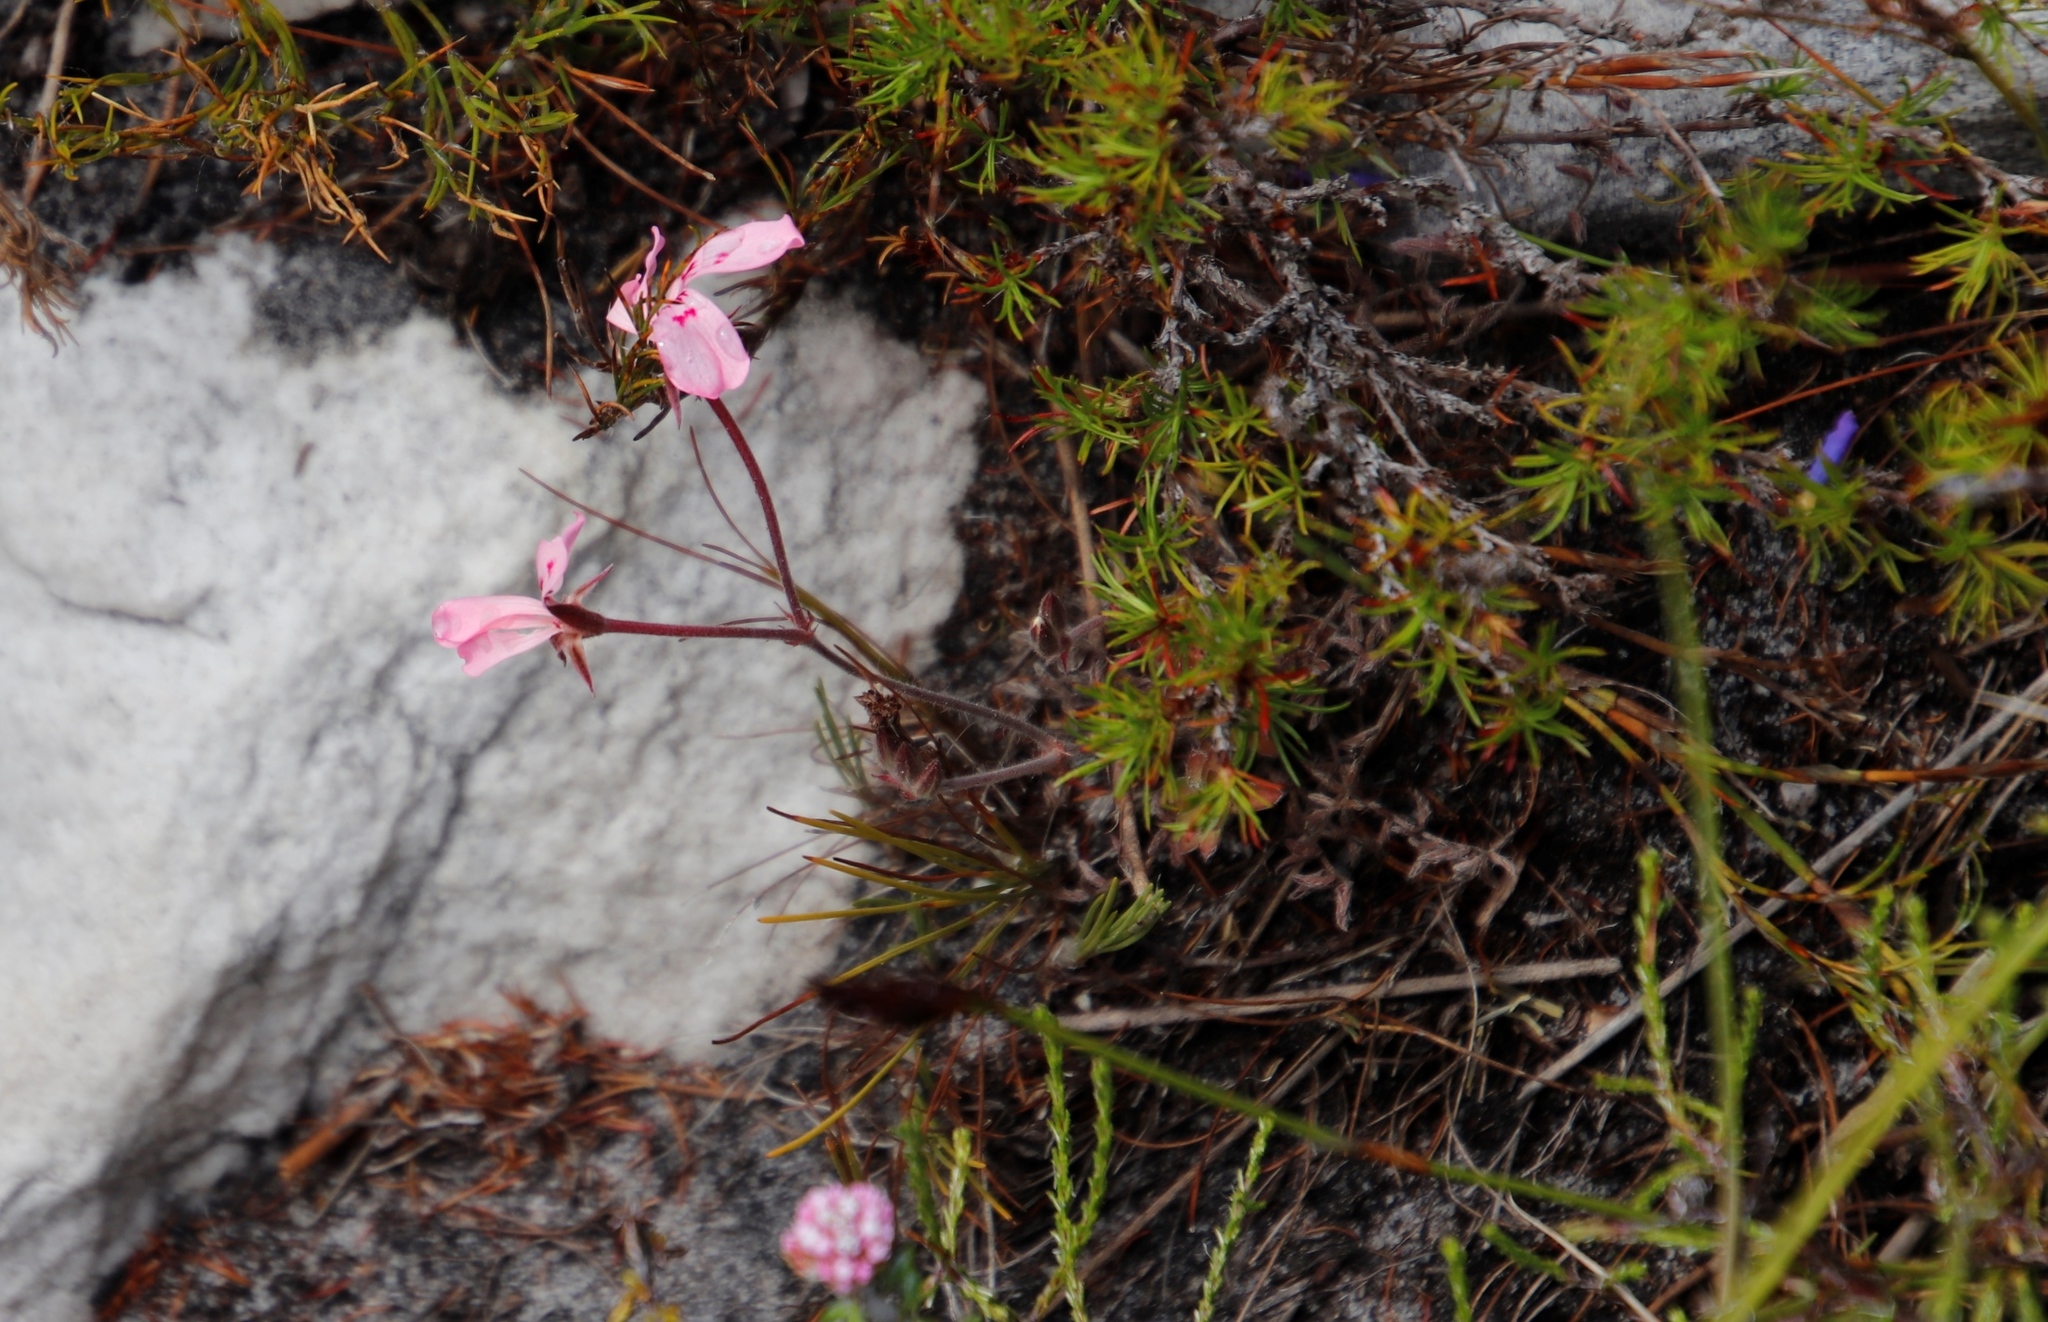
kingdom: Plantae
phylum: Tracheophyta
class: Magnoliopsida
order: Geraniales
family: Geraniaceae
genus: Pelargonium
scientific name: Pelargonium pinnatum
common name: Pinnated pelargonium
